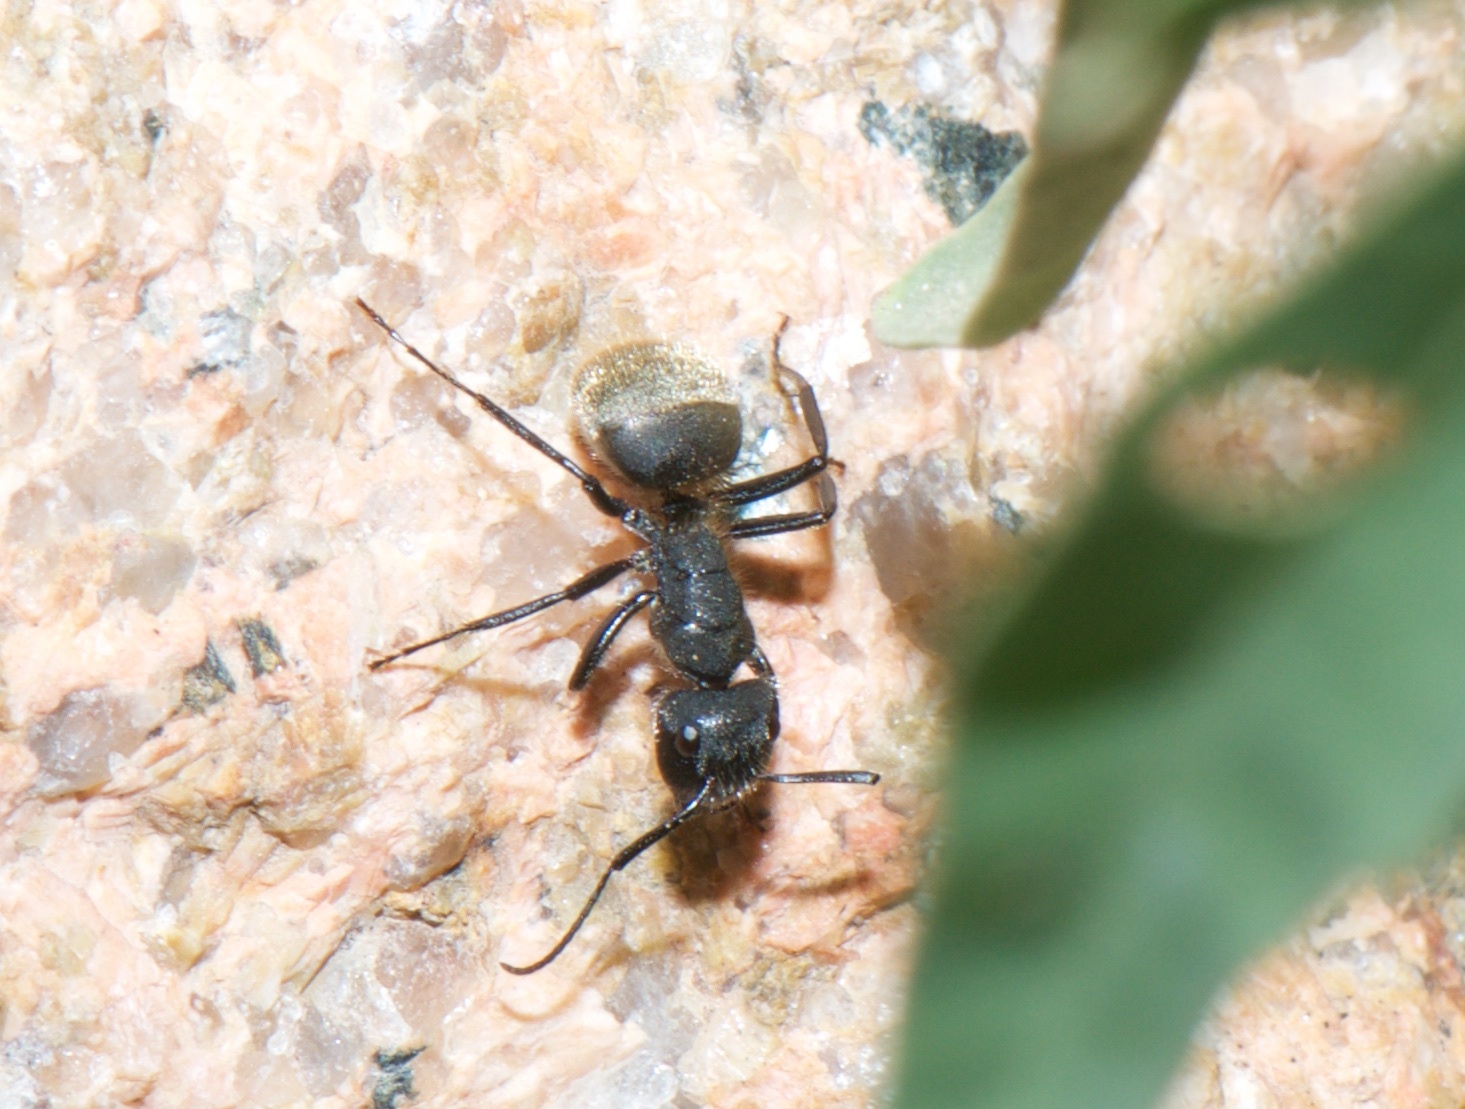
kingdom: Animalia
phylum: Arthropoda
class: Insecta
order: Hymenoptera
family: Formicidae
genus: Camponotus
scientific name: Camponotus mus
